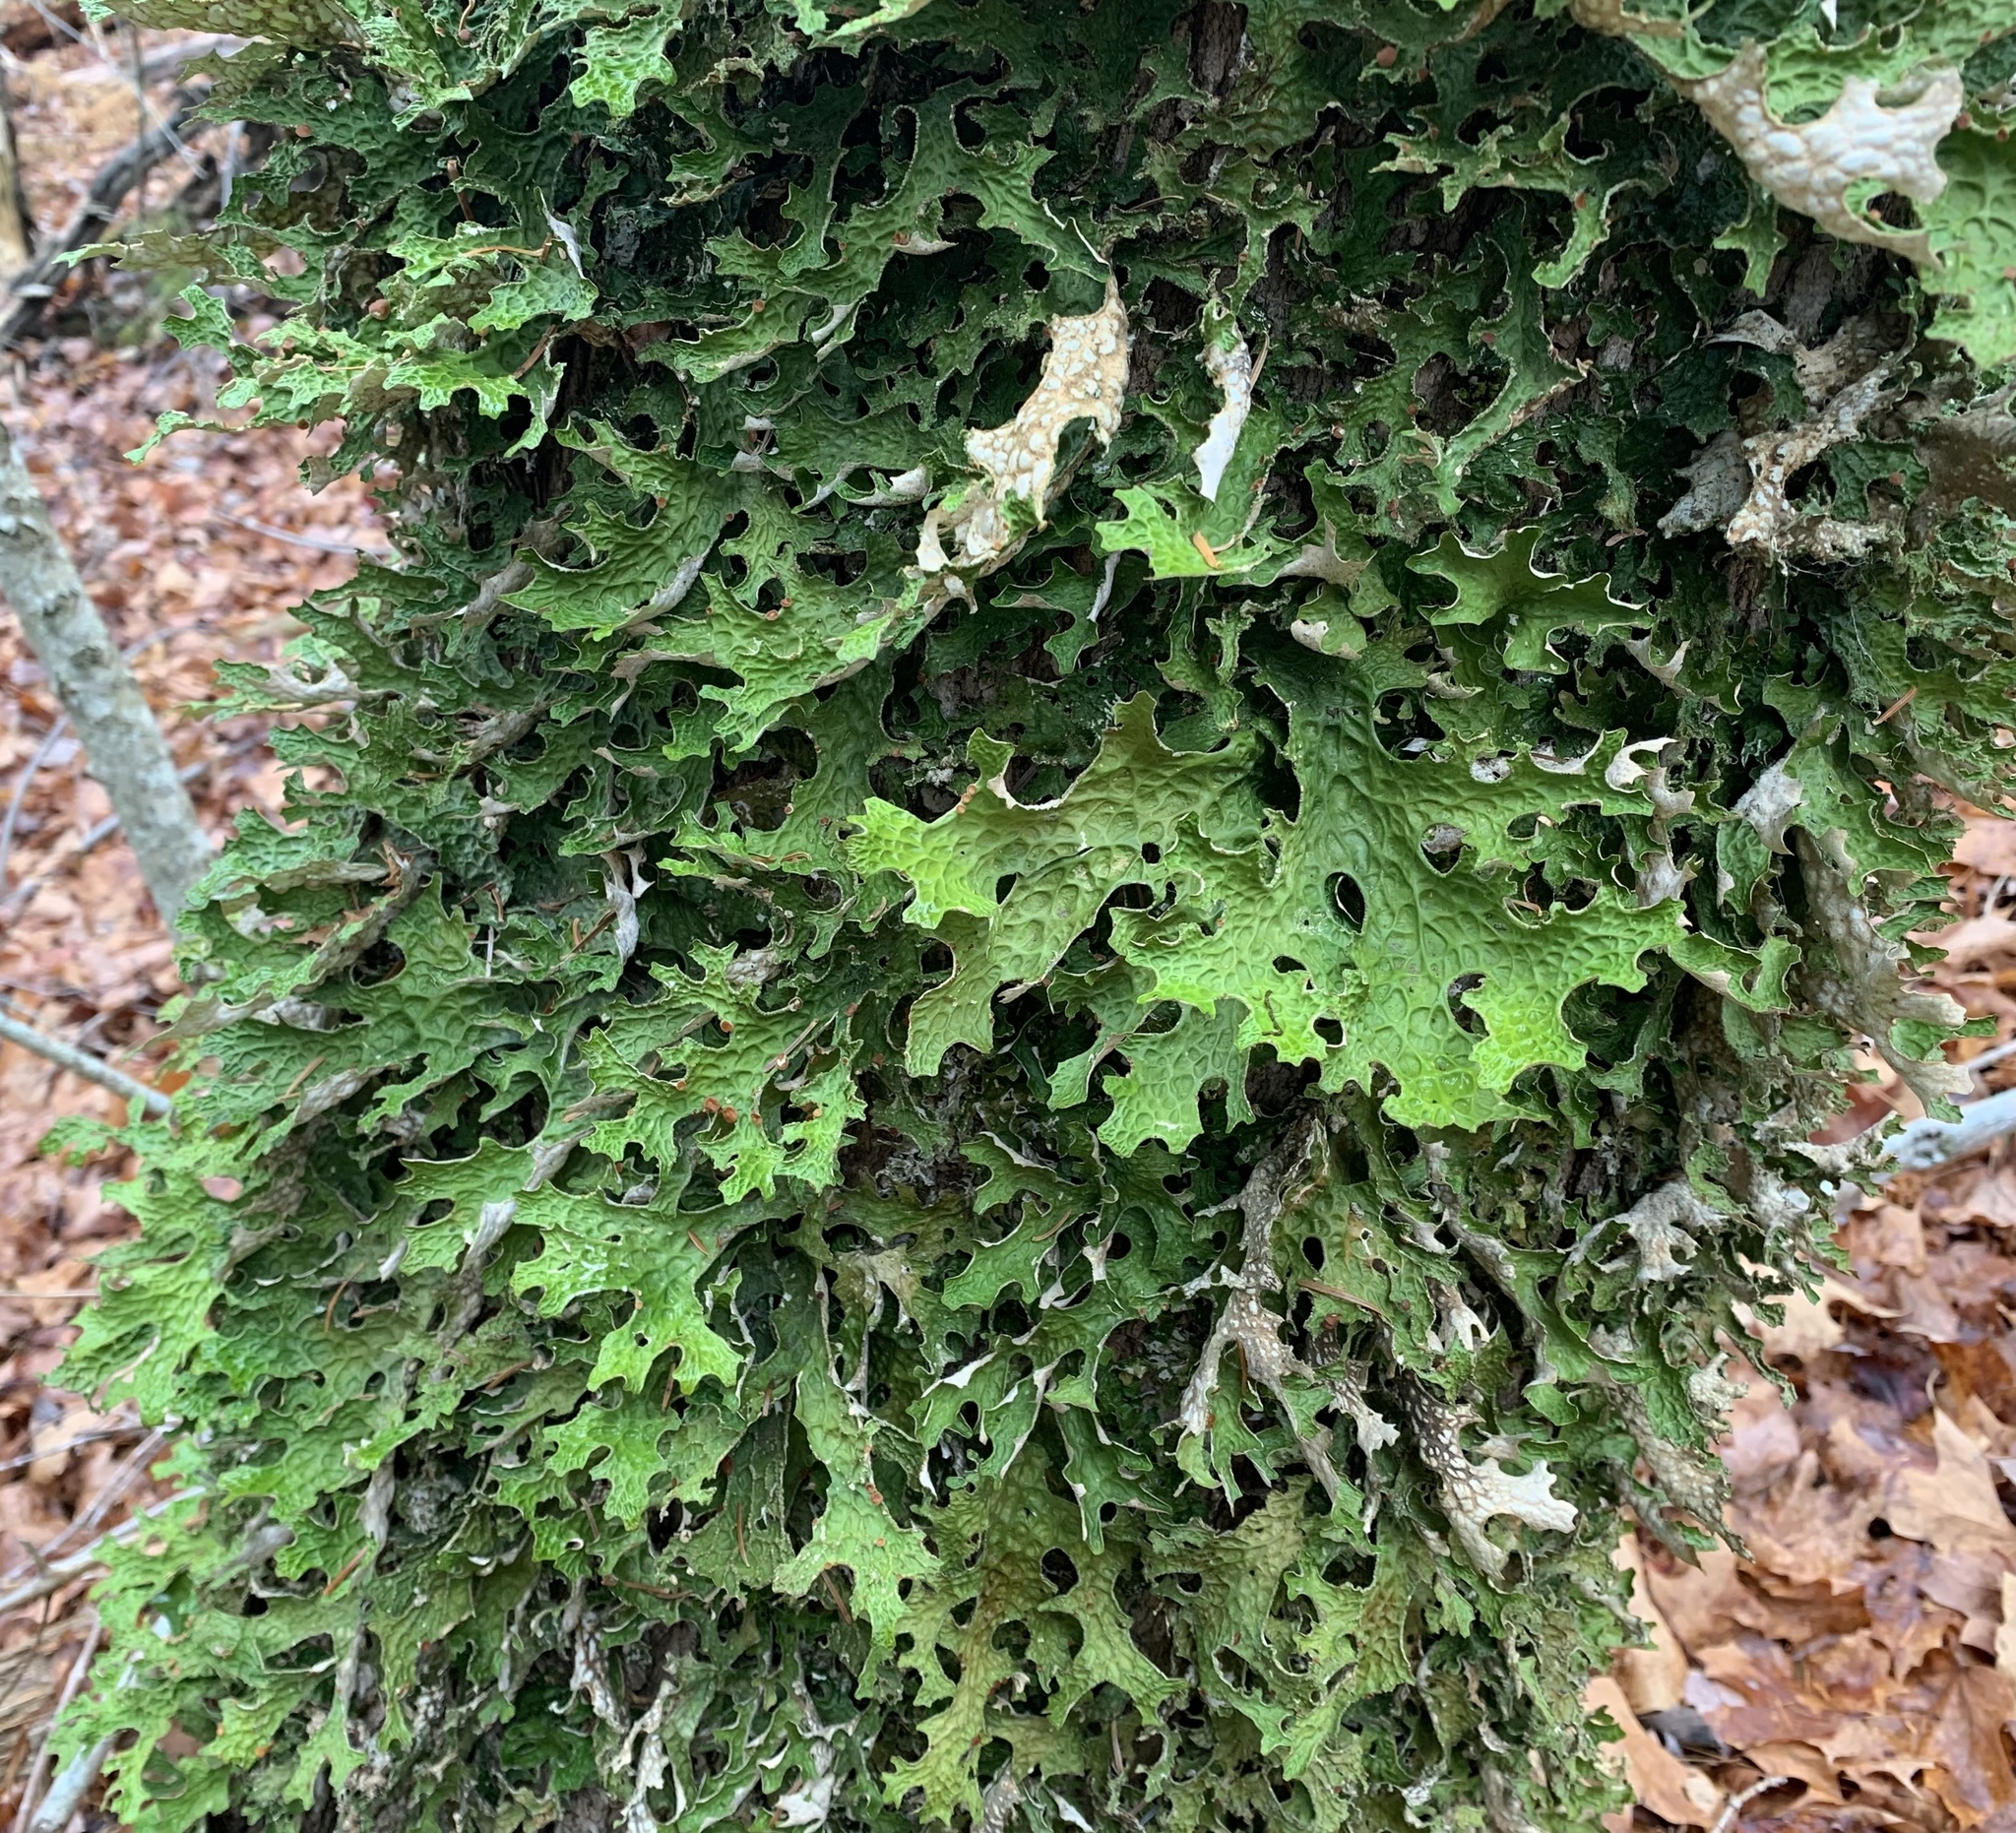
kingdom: Fungi
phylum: Ascomycota
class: Lecanoromycetes
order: Peltigerales
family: Lobariaceae
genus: Lobaria
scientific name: Lobaria pulmonaria
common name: Lungwort
